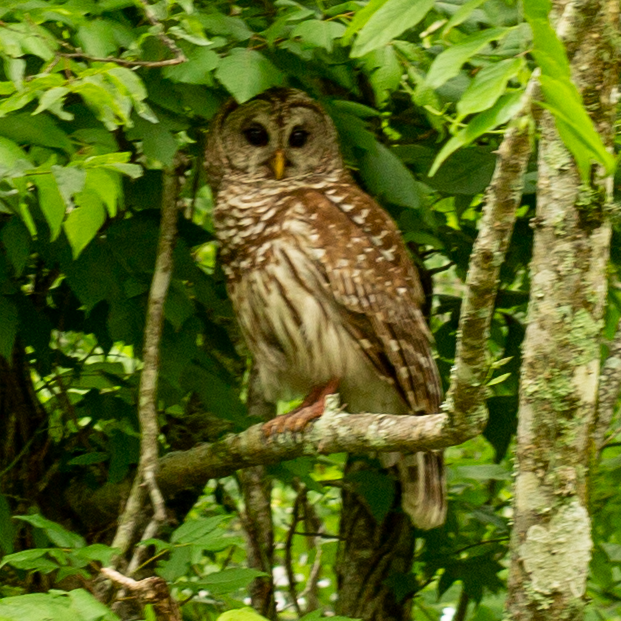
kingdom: Animalia
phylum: Chordata
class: Aves
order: Strigiformes
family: Strigidae
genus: Strix
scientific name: Strix varia
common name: Barred owl
